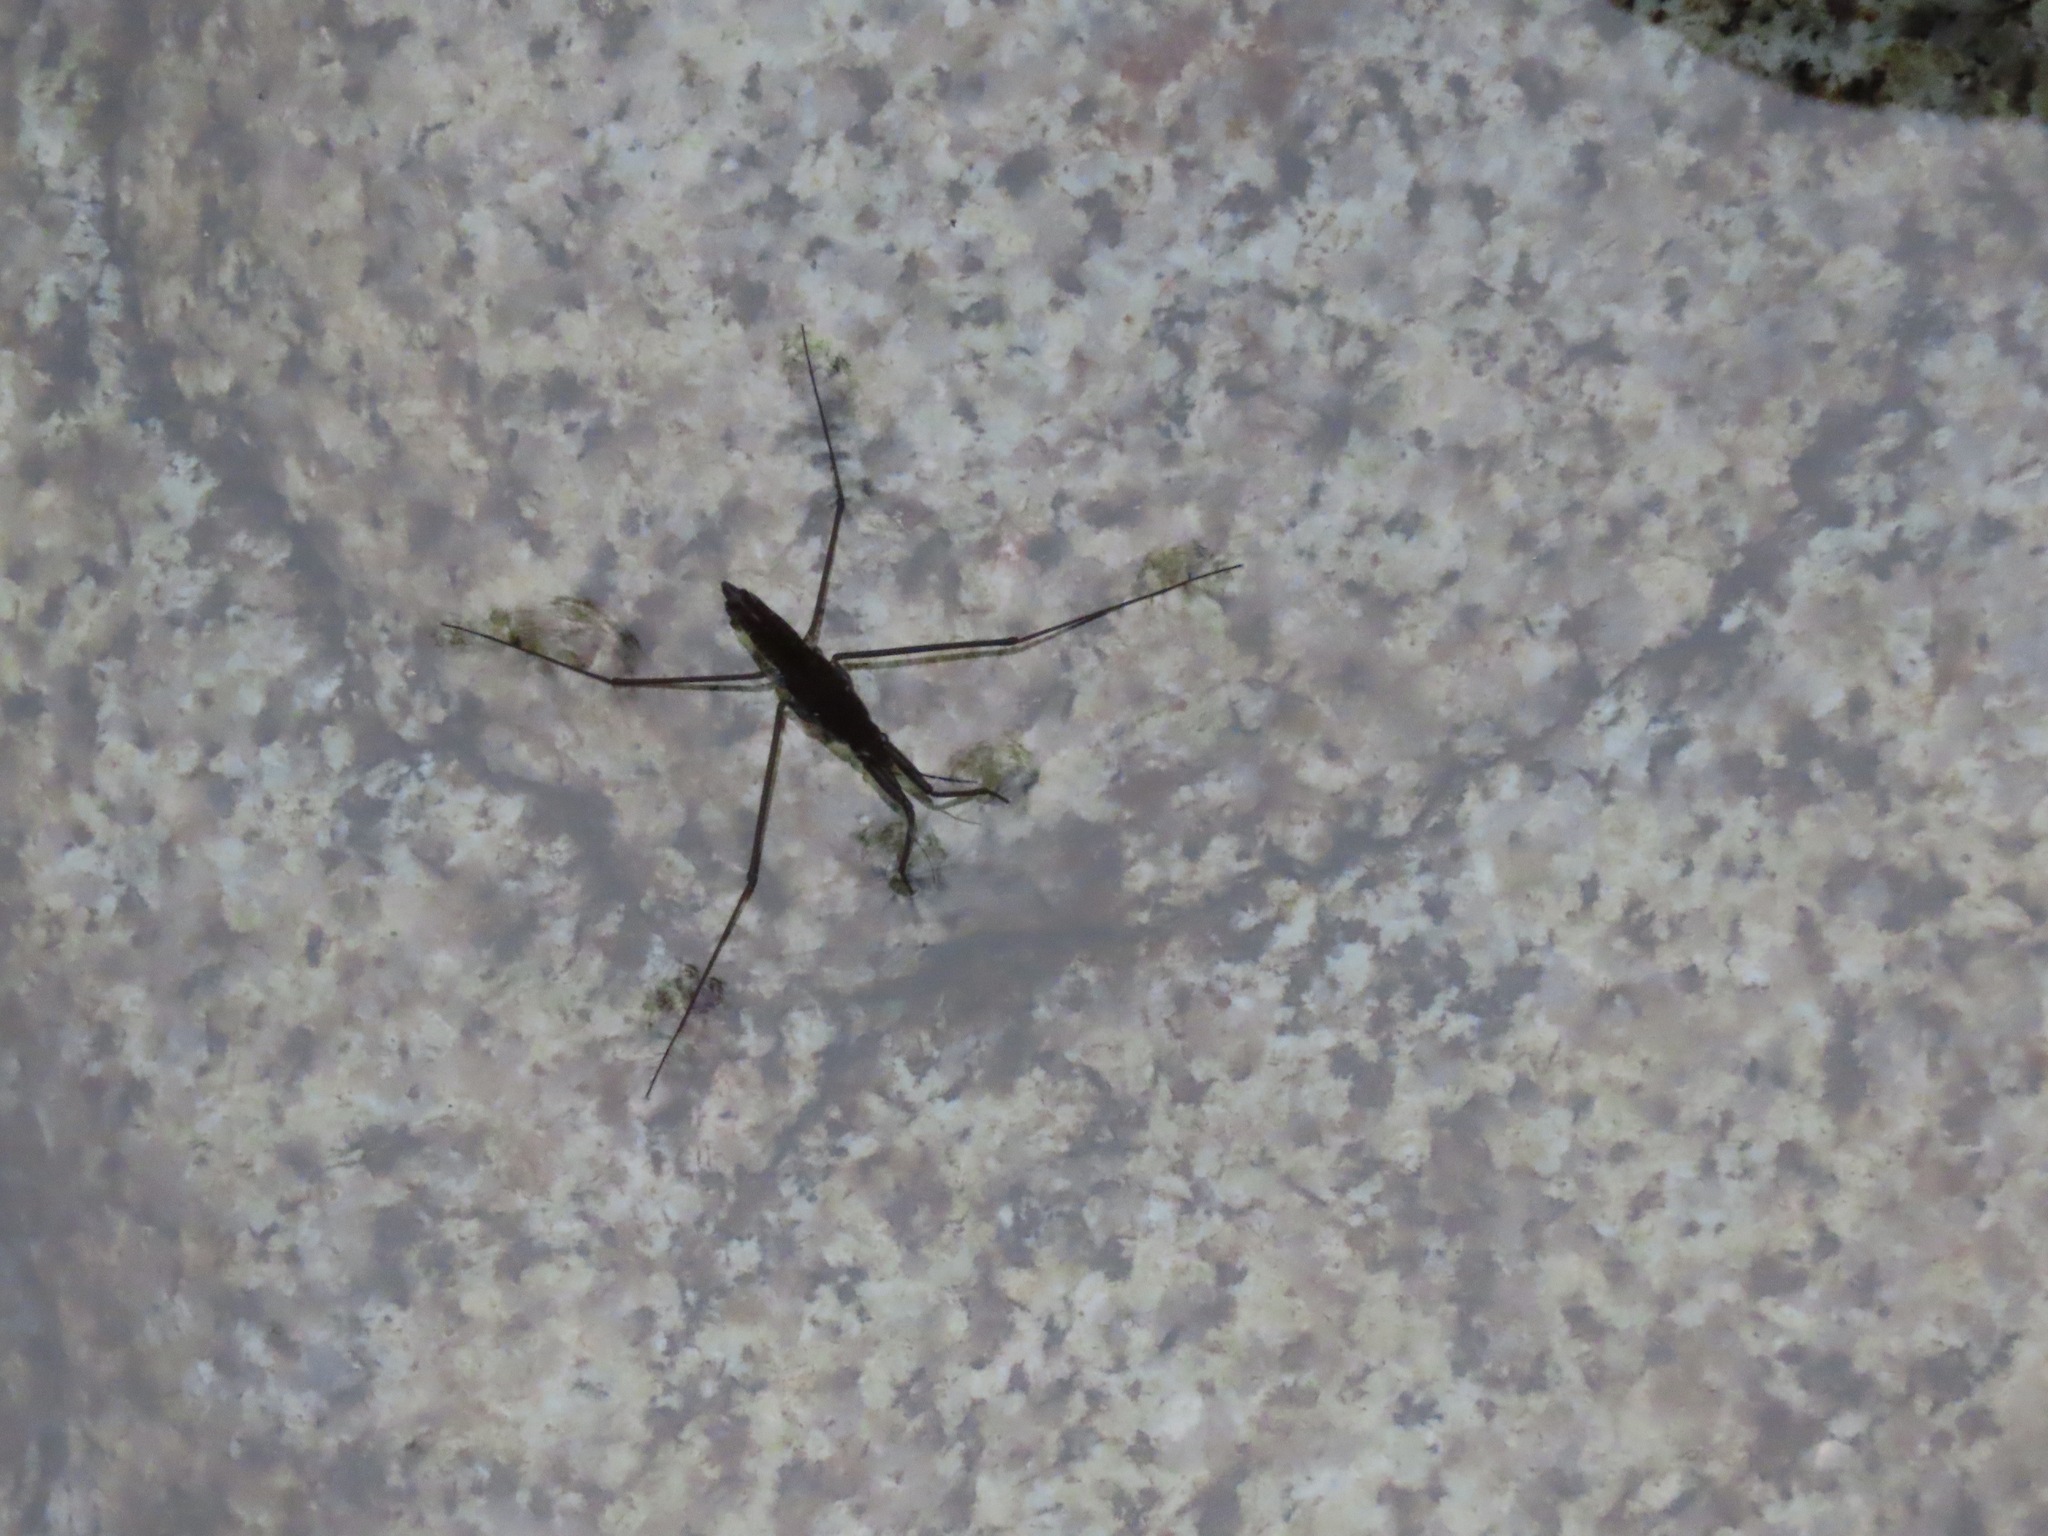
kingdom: Animalia
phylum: Arthropoda
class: Insecta
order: Hemiptera
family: Gerridae
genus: Aquarius
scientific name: Aquarius remigis
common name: Common water strider
